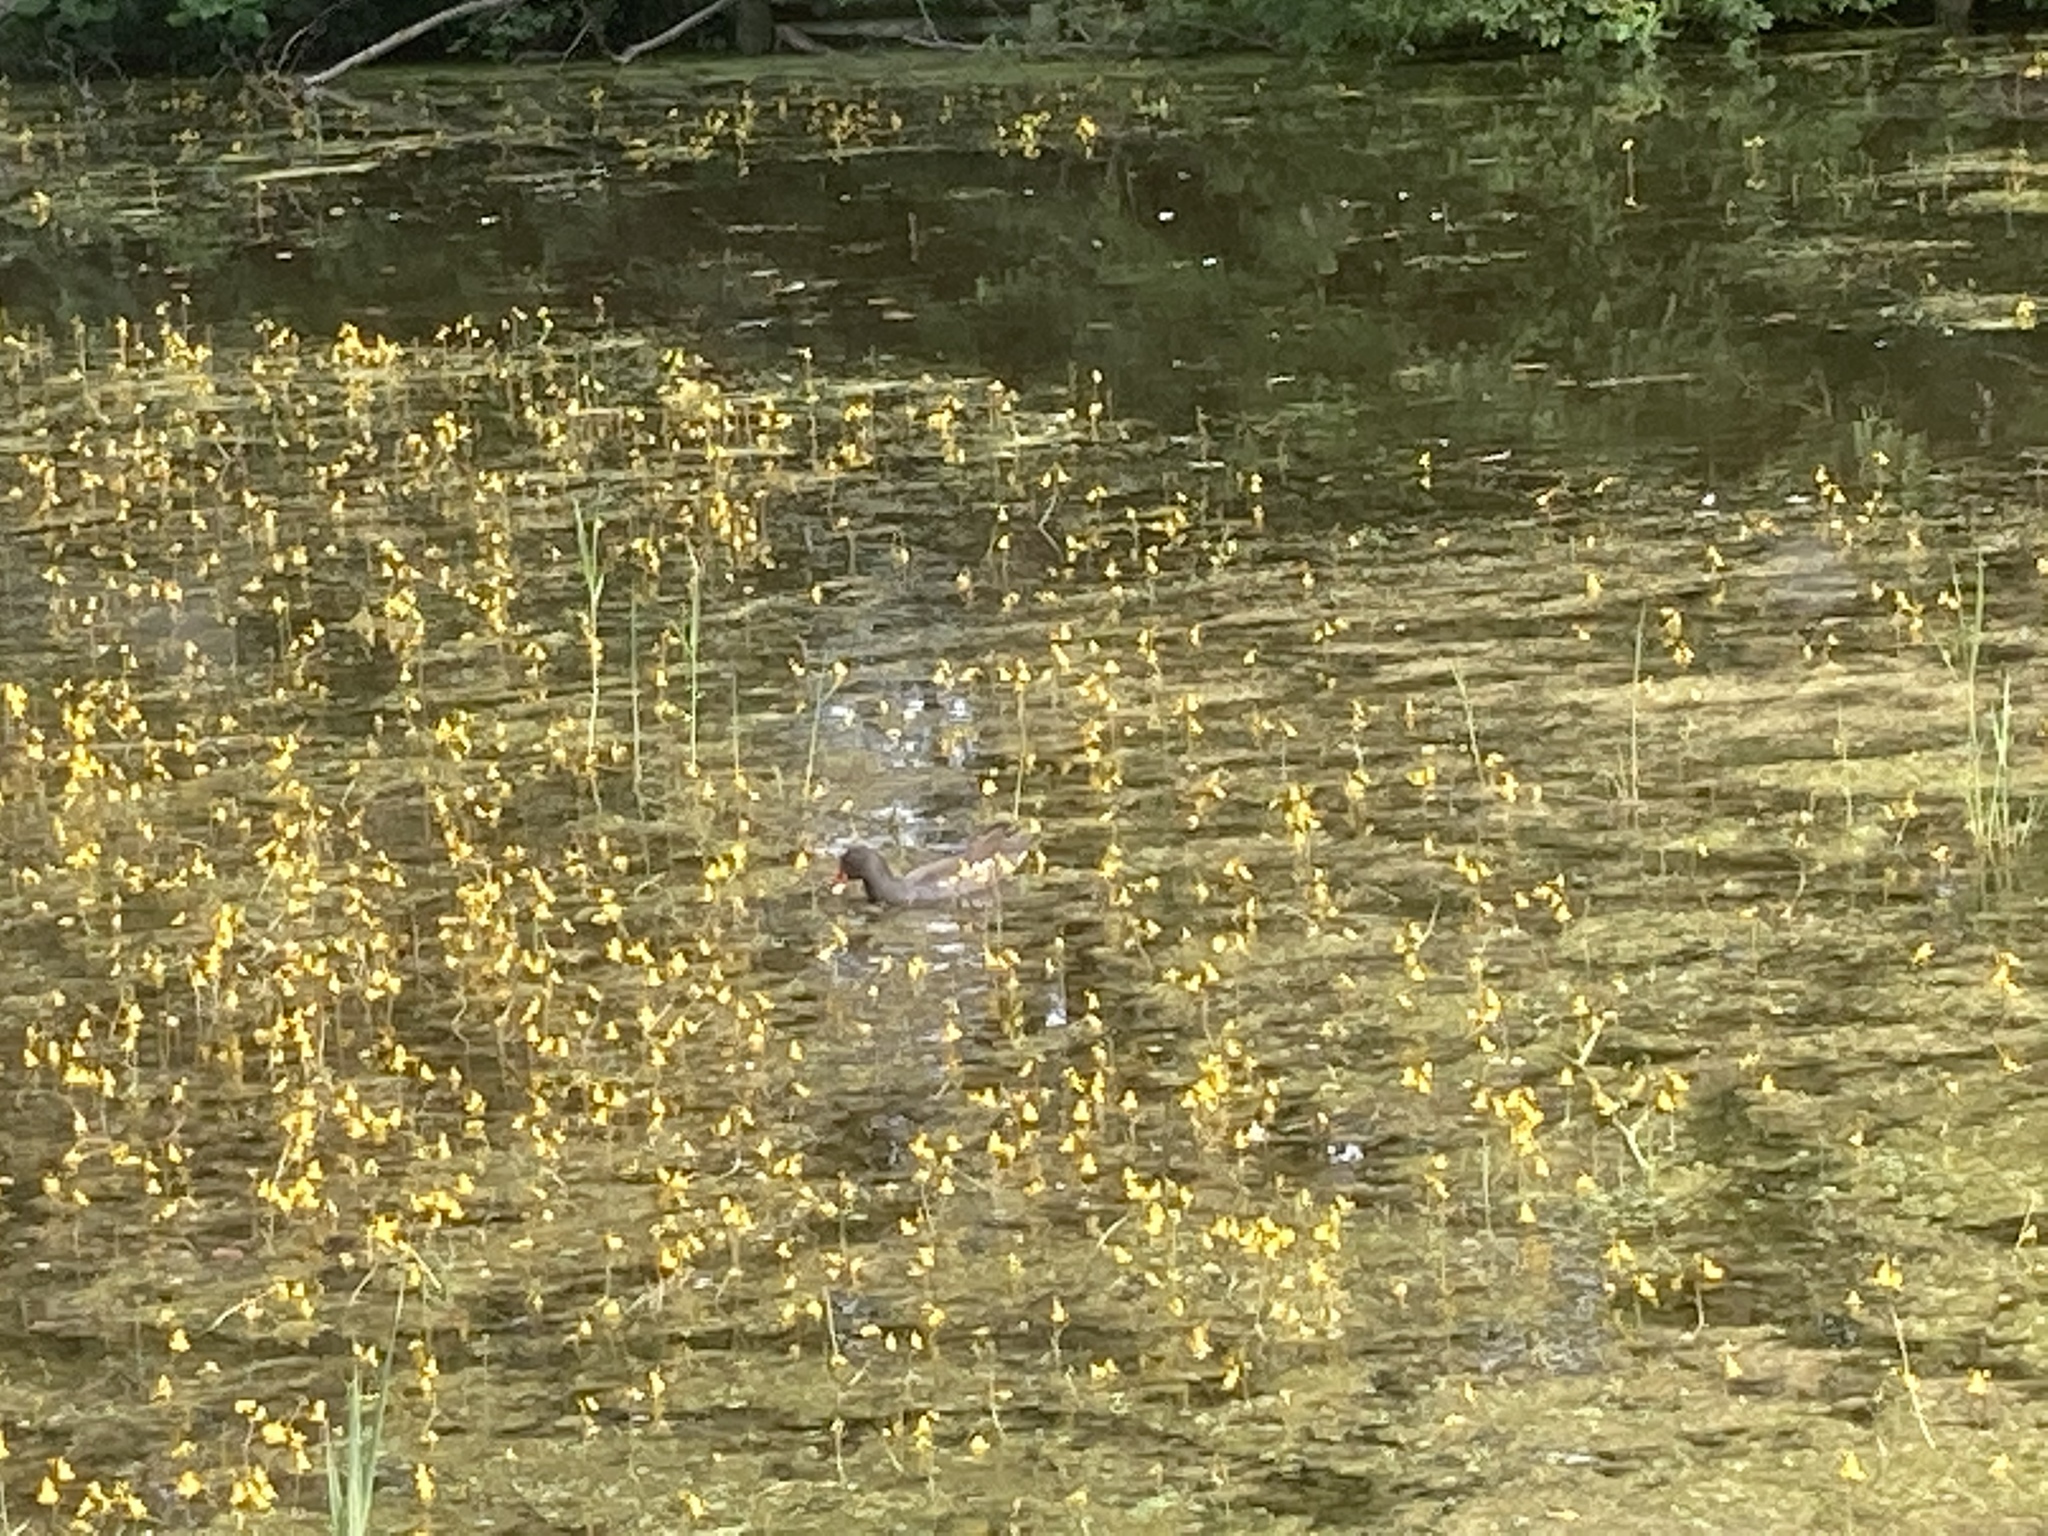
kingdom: Plantae
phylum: Tracheophyta
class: Magnoliopsida
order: Lamiales
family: Lentibulariaceae
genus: Utricularia
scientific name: Utricularia australis
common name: Bladderwort
